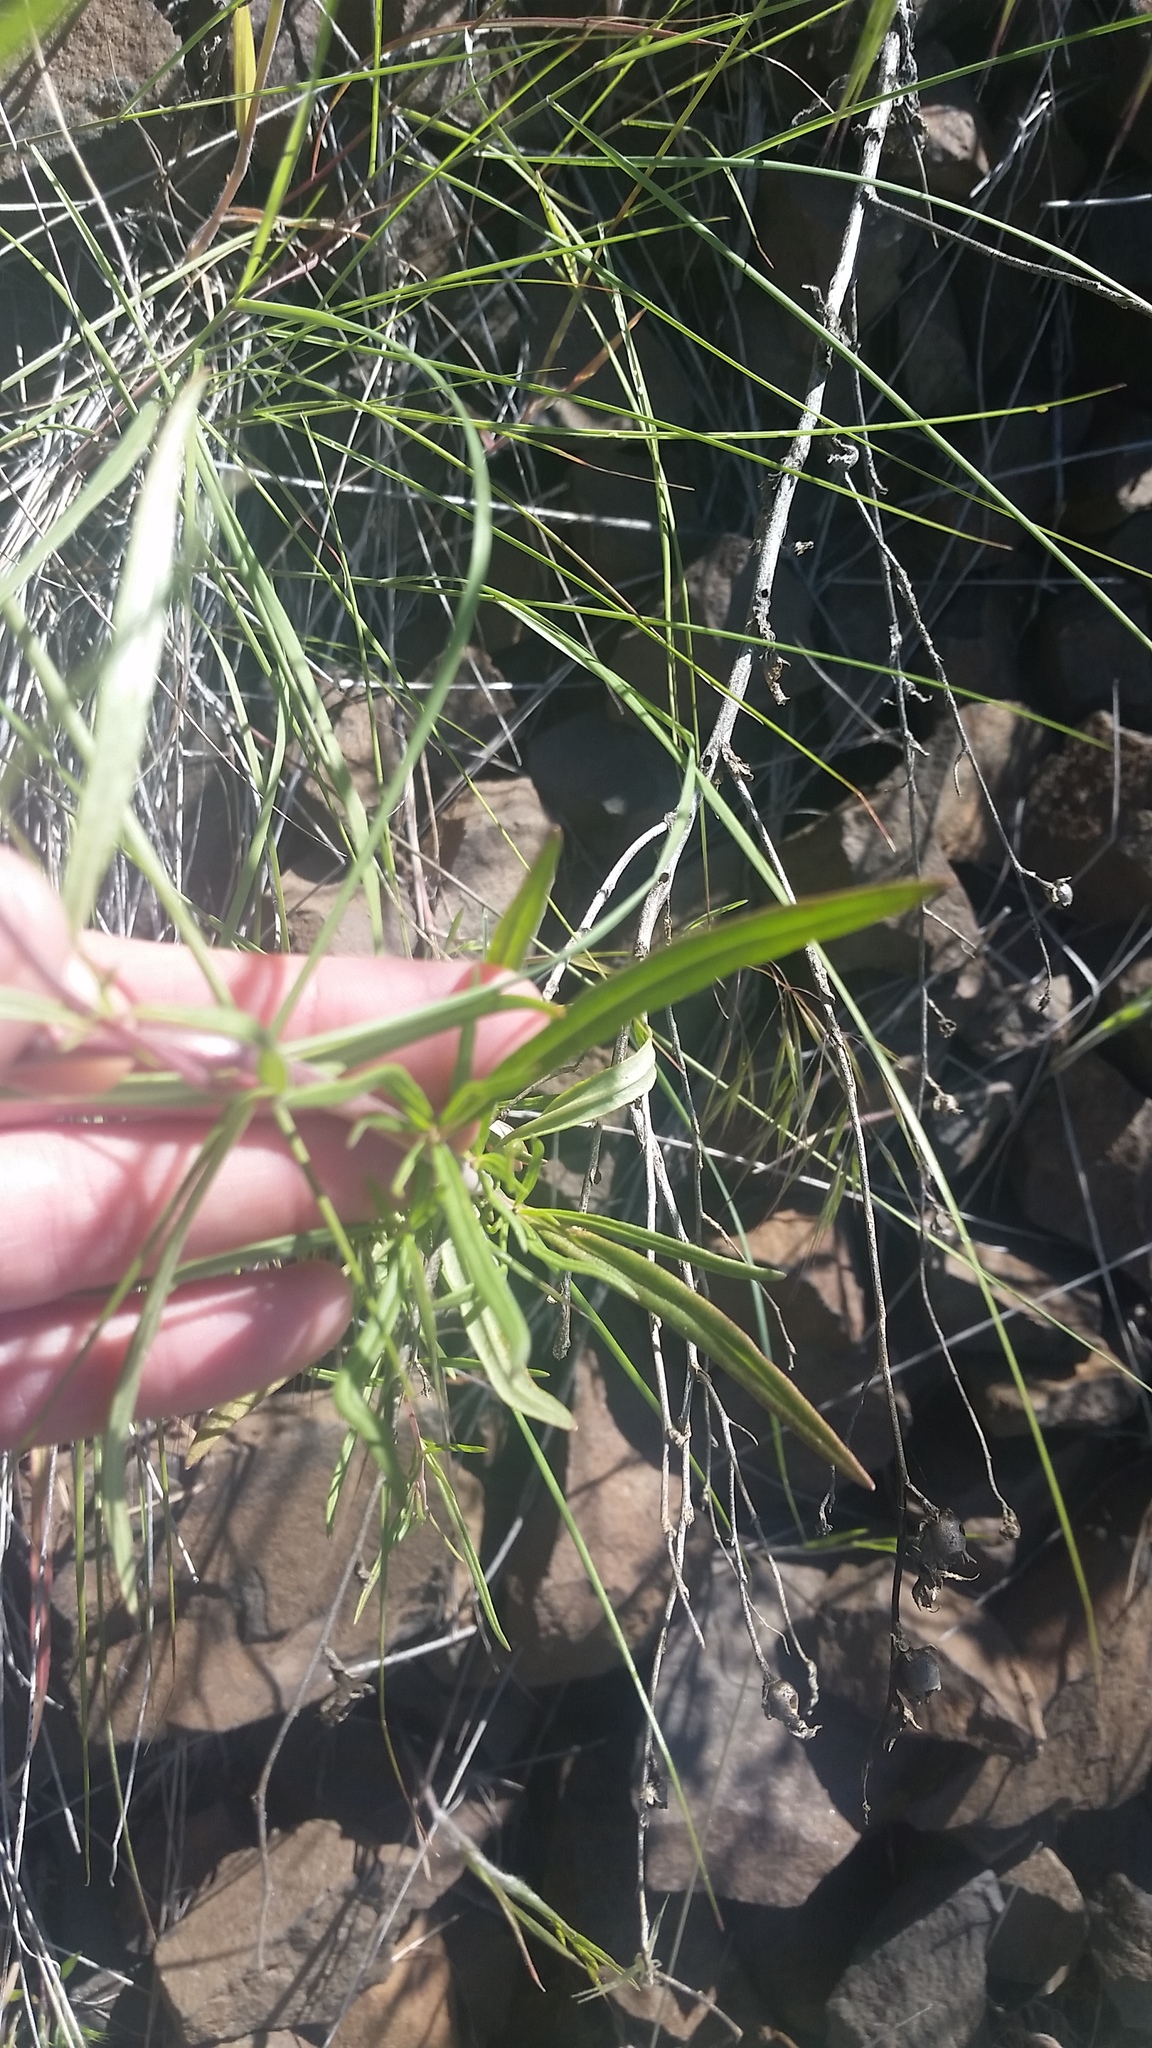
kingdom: Plantae
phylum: Tracheophyta
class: Magnoliopsida
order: Myrtales
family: Onagraceae
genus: Clarkia
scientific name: Clarkia pulchella
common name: Deer horn
